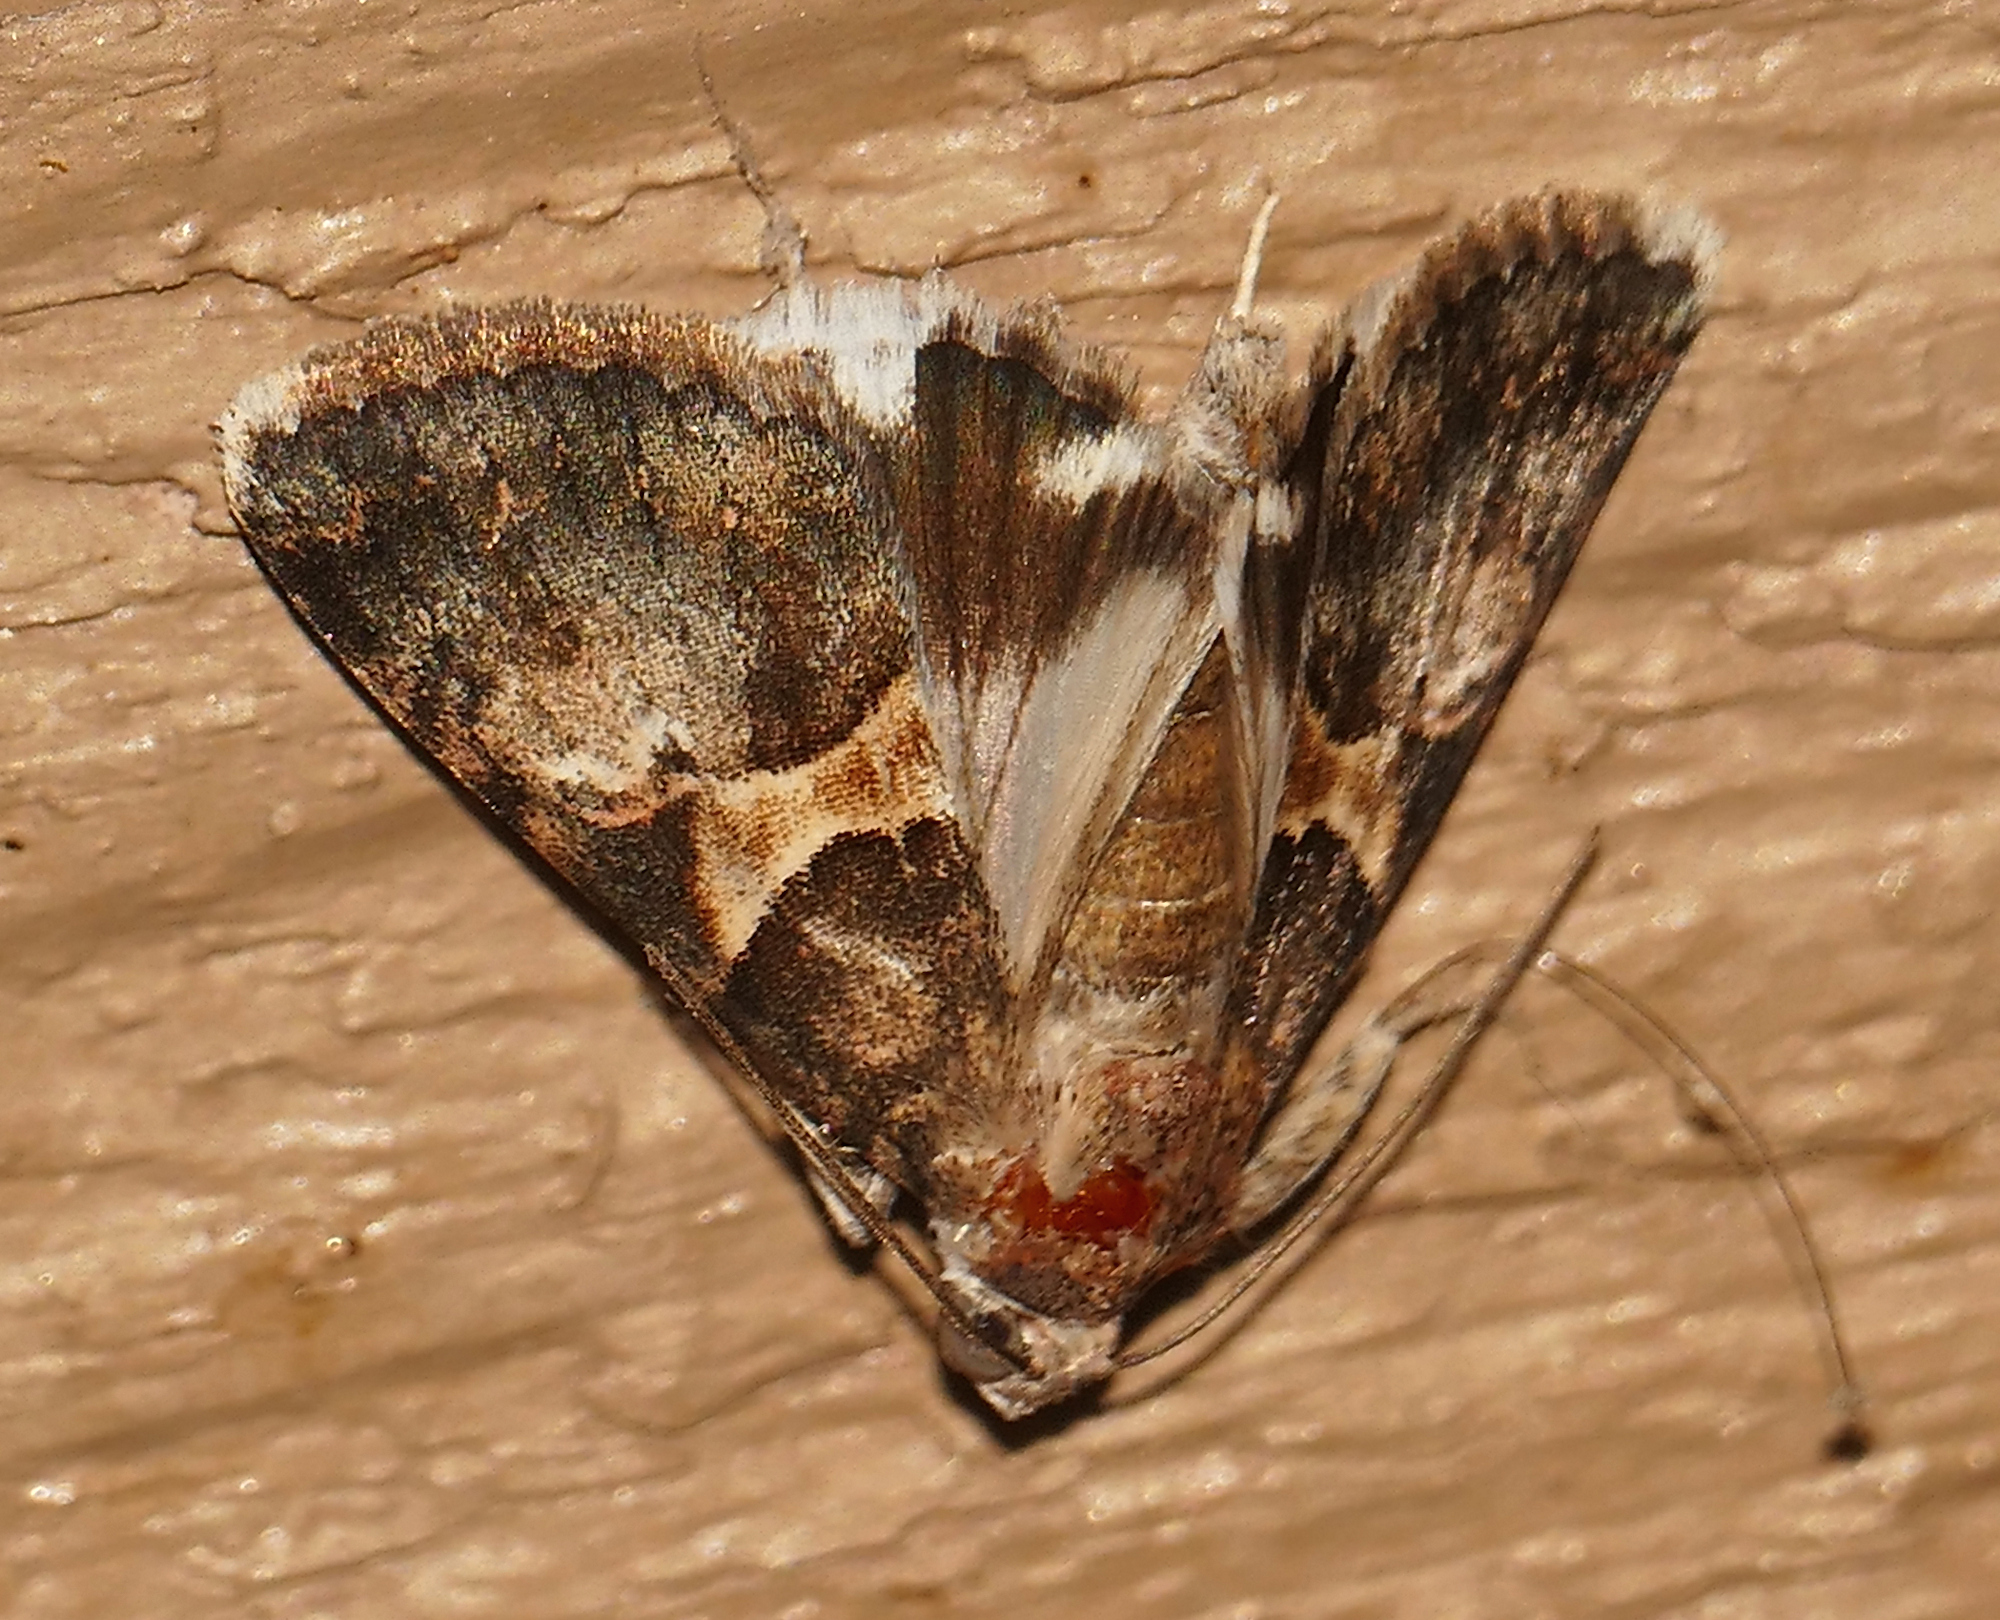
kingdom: Animalia
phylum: Arthropoda
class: Insecta
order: Lepidoptera
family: Erebidae
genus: Melipotis
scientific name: Melipotis jucunda
